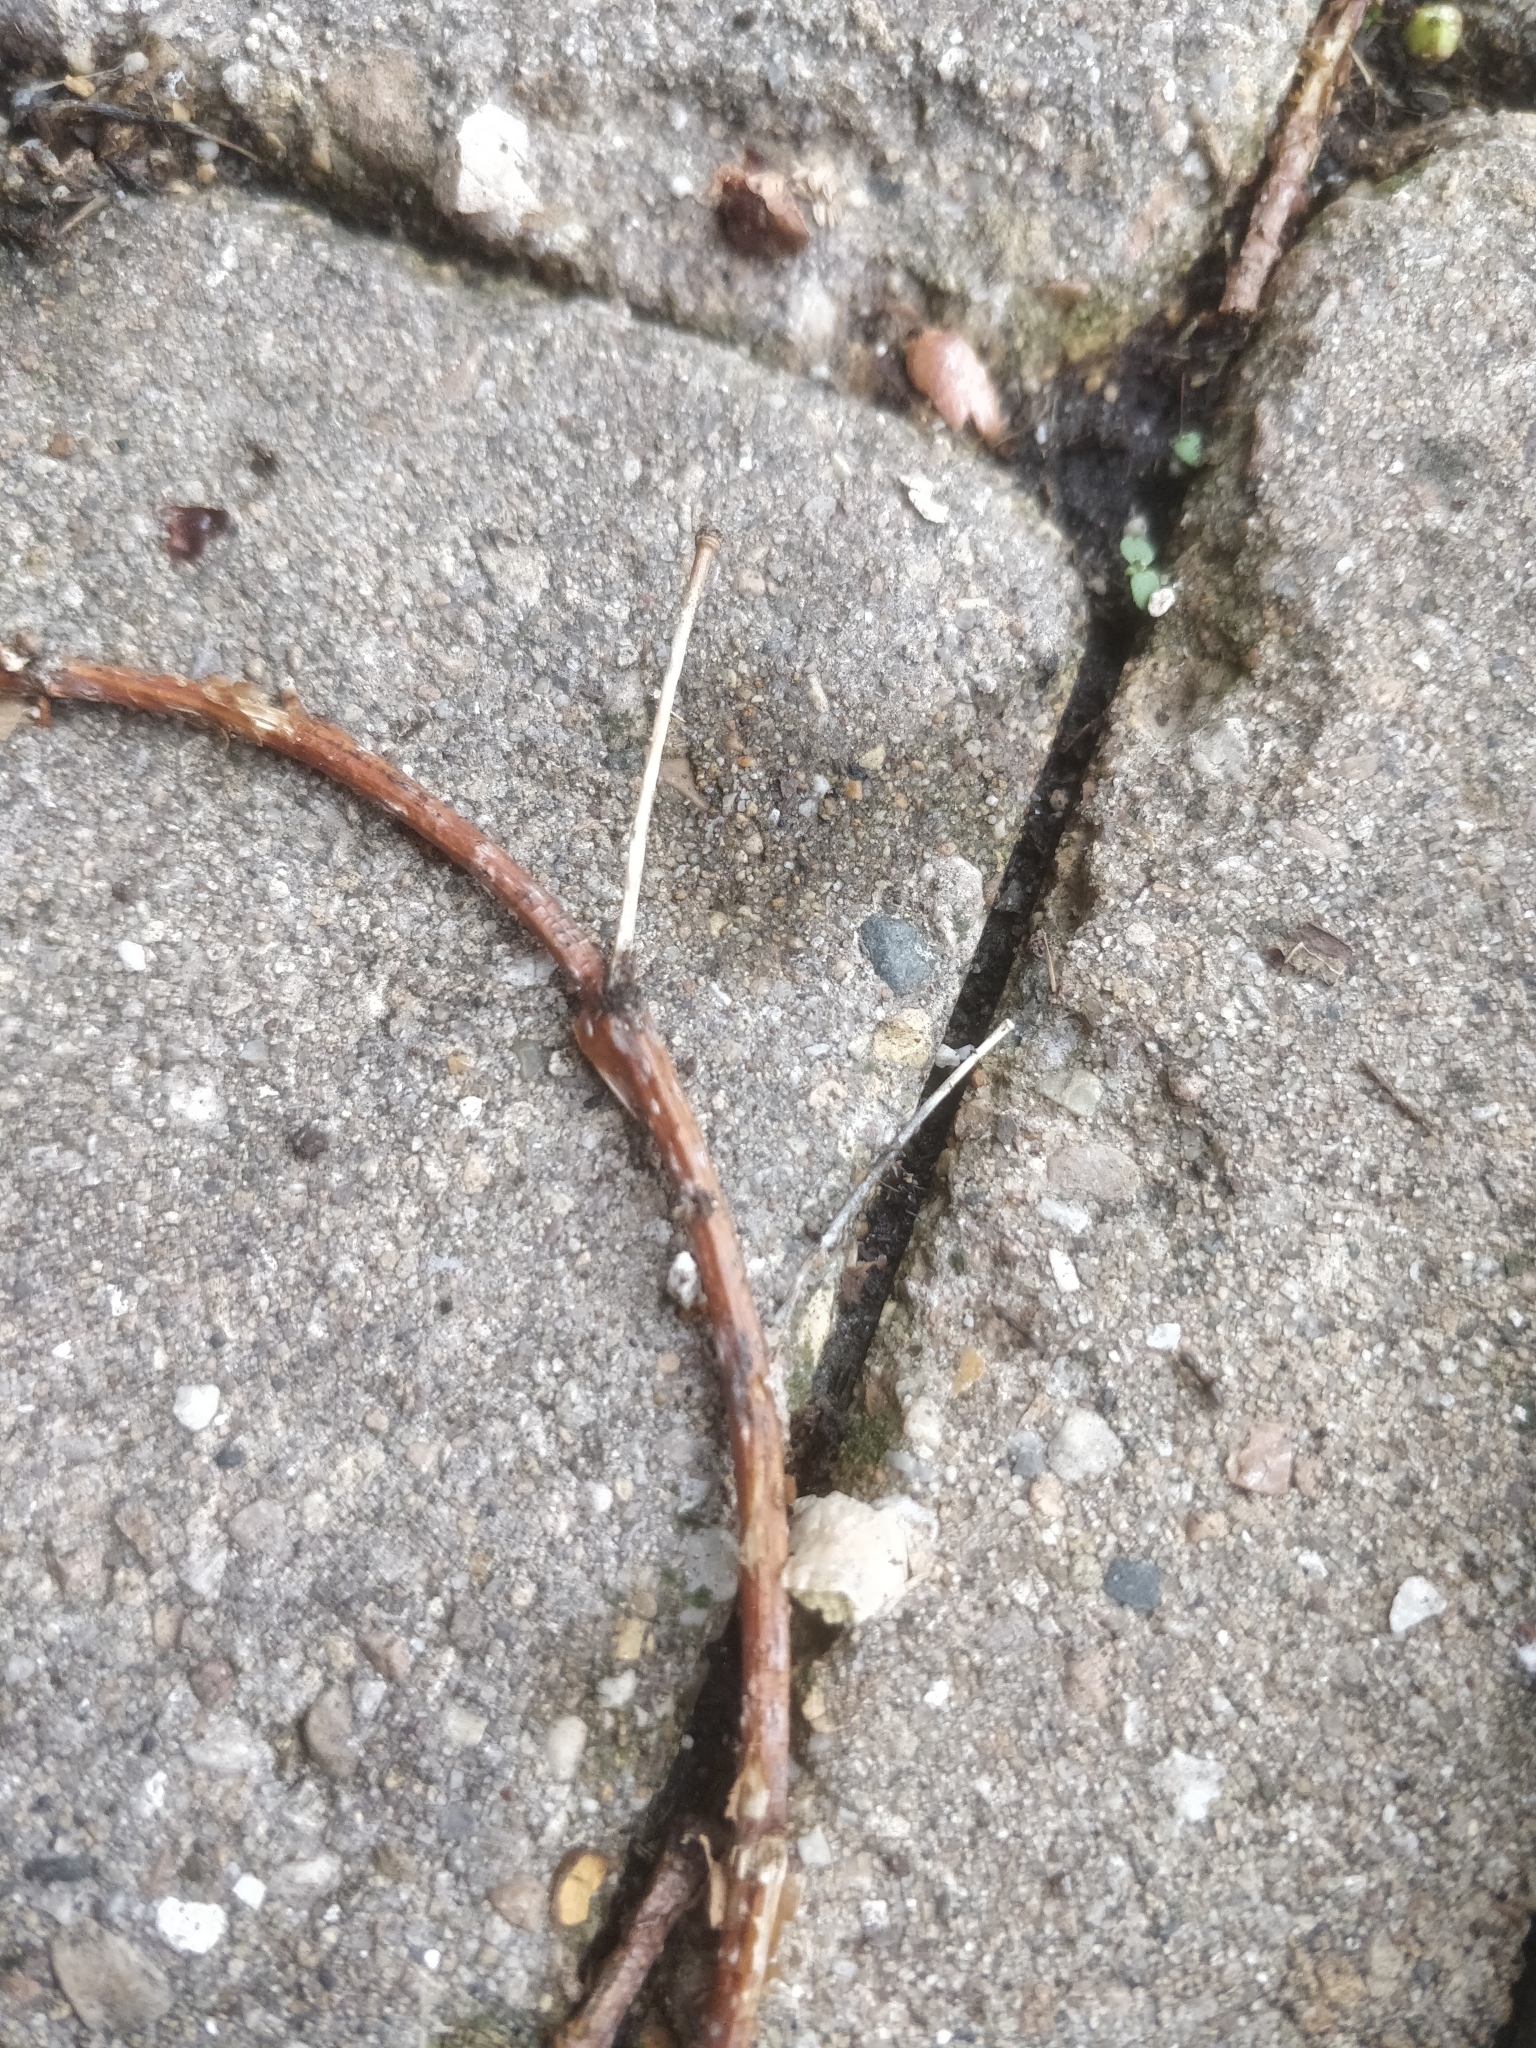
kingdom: Animalia
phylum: Arthropoda
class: Insecta
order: Hymenoptera
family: Formicidae
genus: Tapinoma
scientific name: Tapinoma sessile
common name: Odorous house ant
